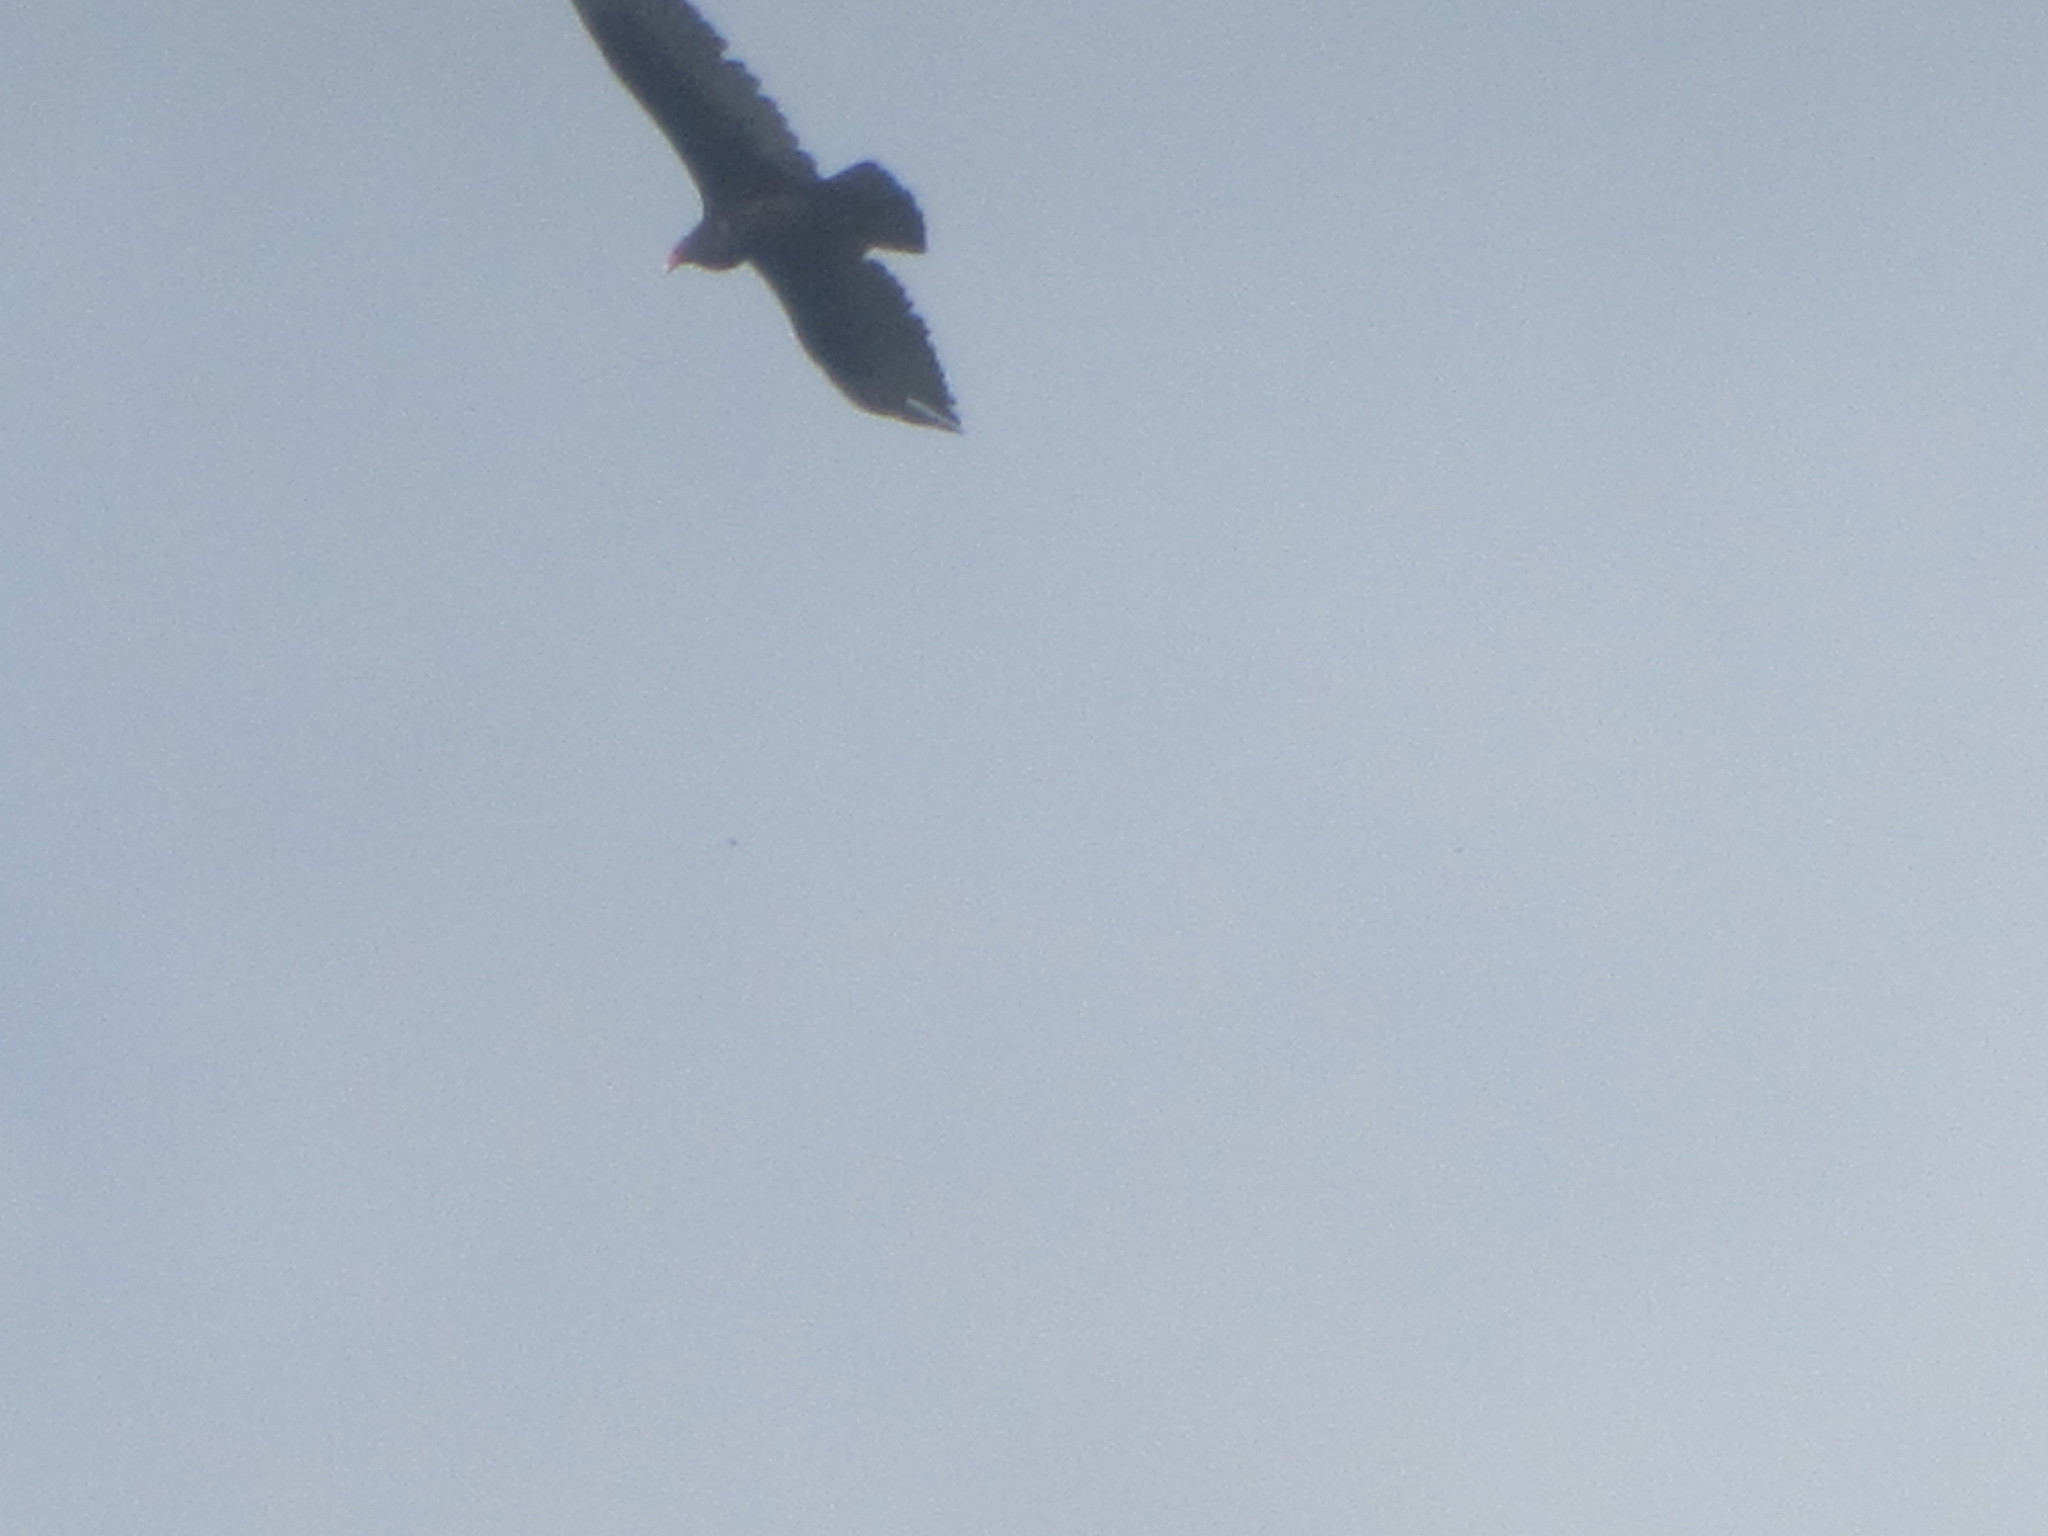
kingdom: Animalia
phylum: Chordata
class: Aves
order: Accipitriformes
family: Cathartidae
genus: Cathartes
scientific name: Cathartes aura
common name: Turkey vulture
